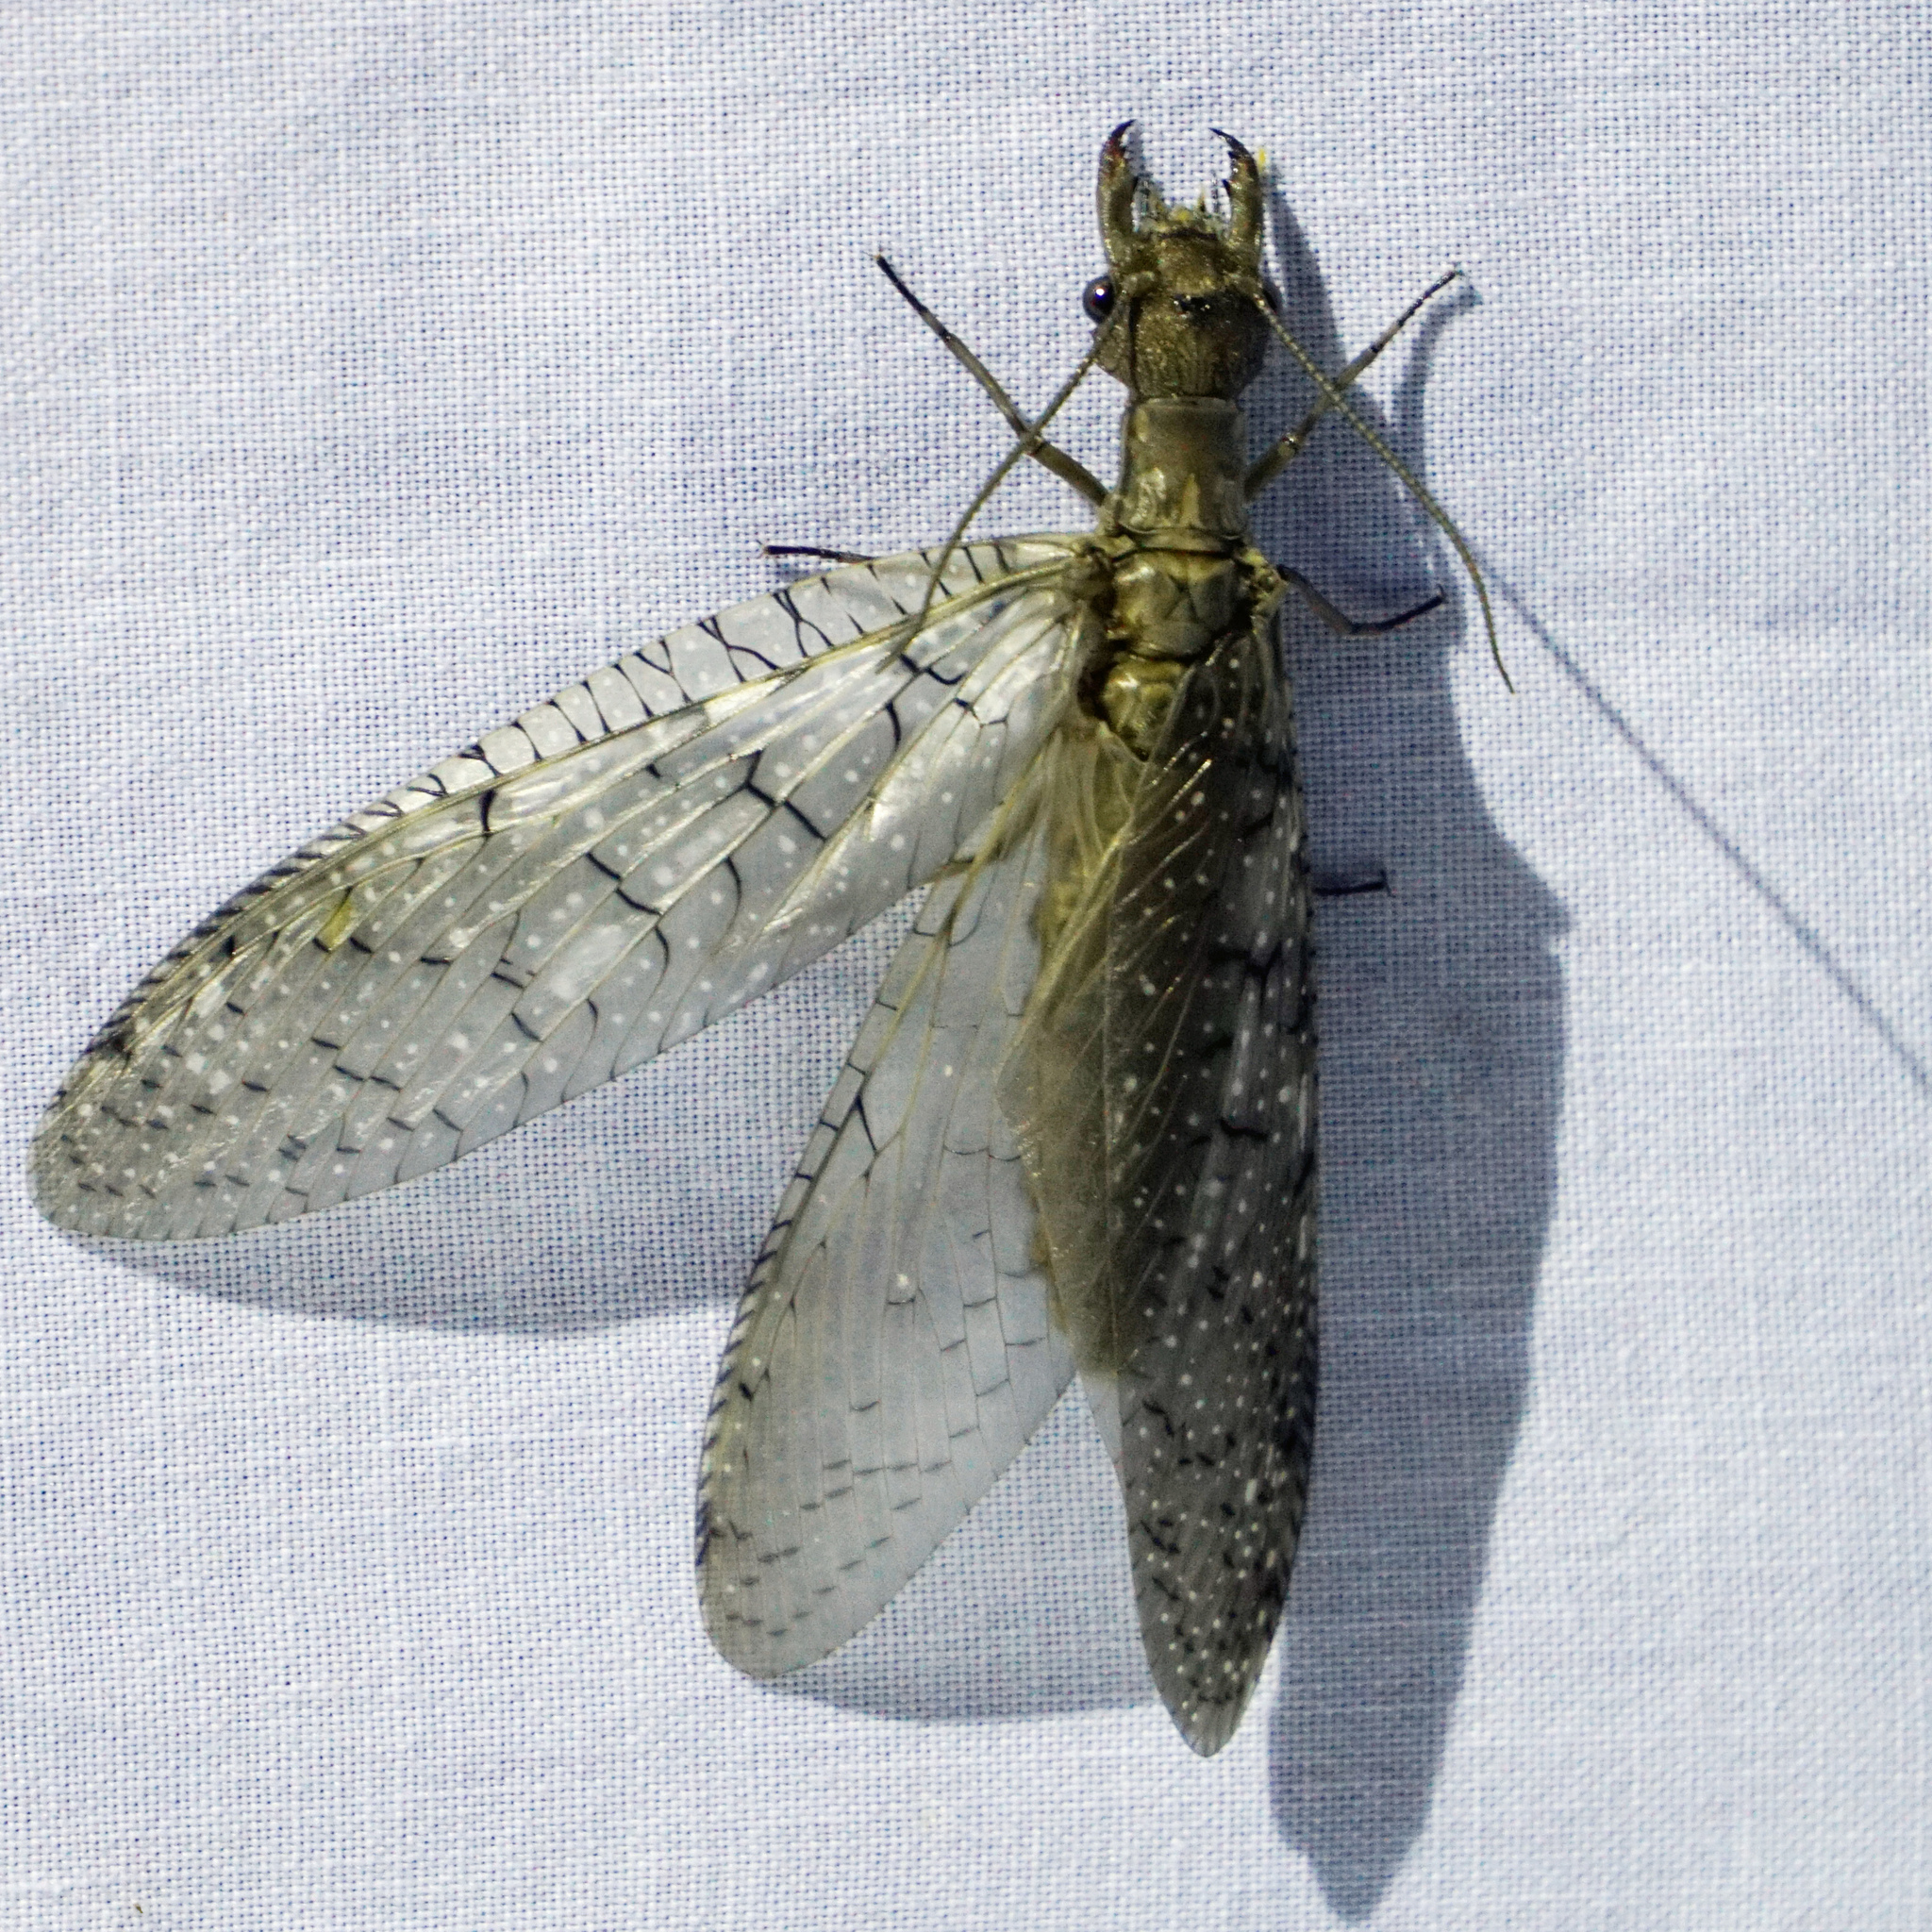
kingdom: Animalia
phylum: Arthropoda
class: Insecta
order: Megaloptera
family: Corydalidae
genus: Corydalus
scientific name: Corydalus cornutus
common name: Dobsonfly
